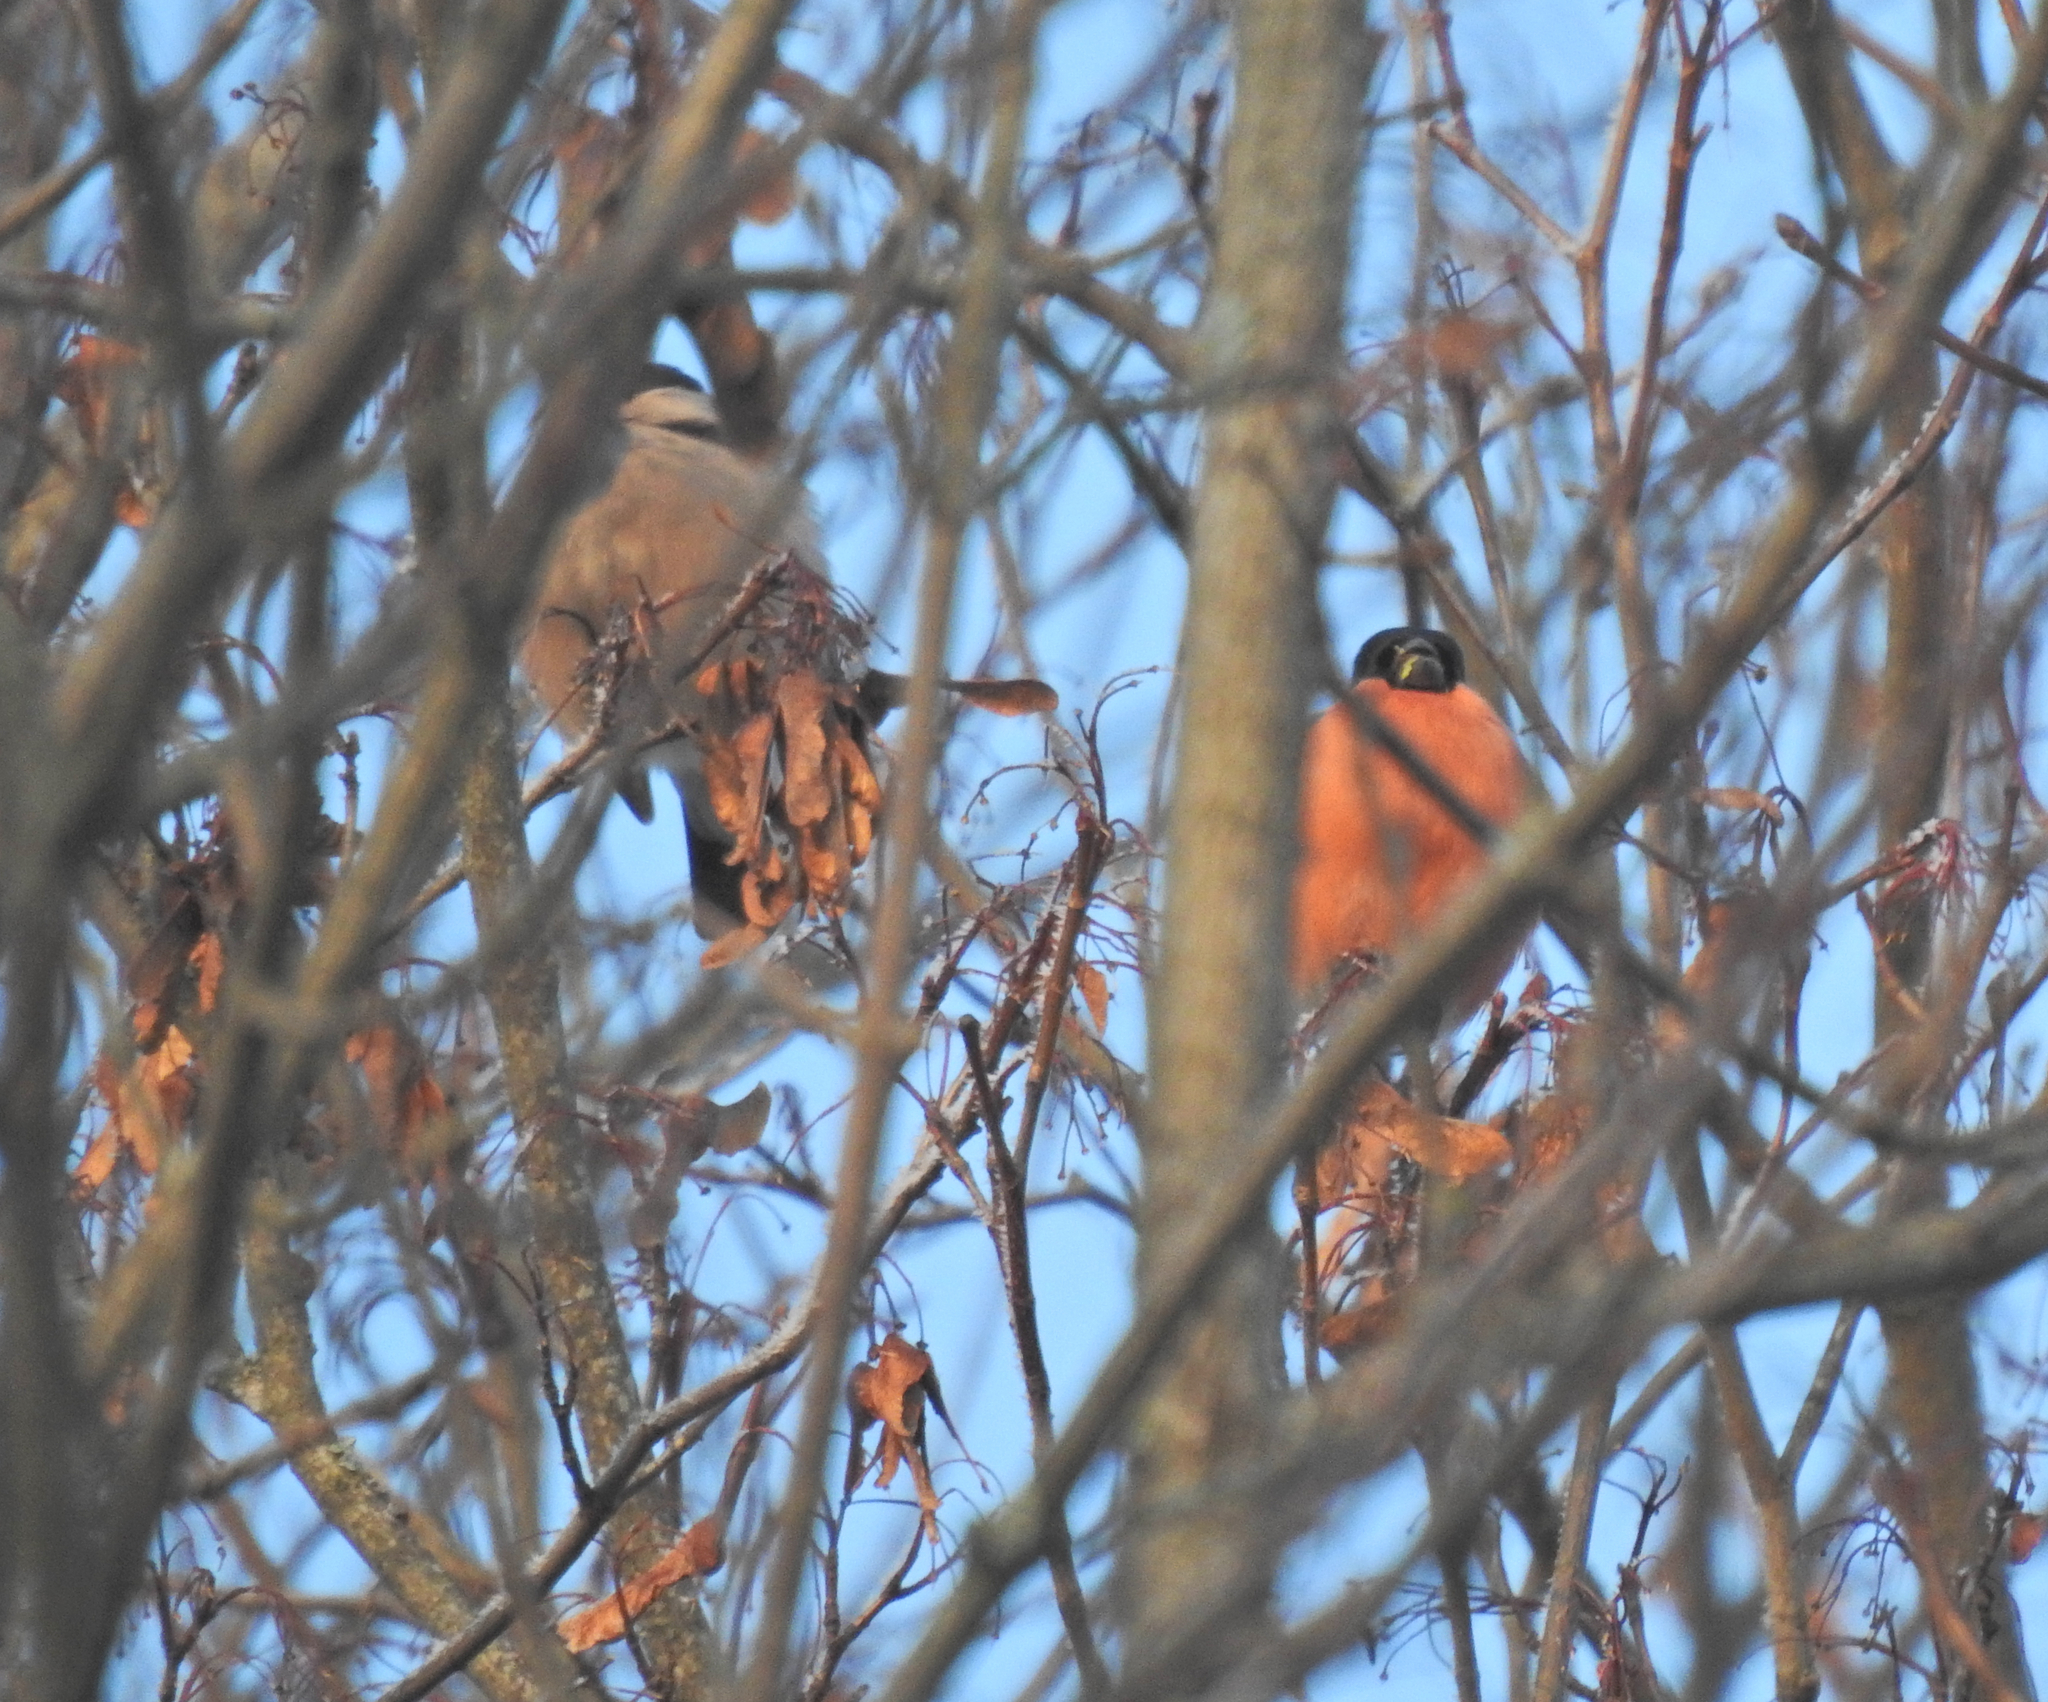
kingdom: Animalia
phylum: Chordata
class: Aves
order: Passeriformes
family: Fringillidae
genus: Pyrrhula
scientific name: Pyrrhula pyrrhula
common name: Eurasian bullfinch
